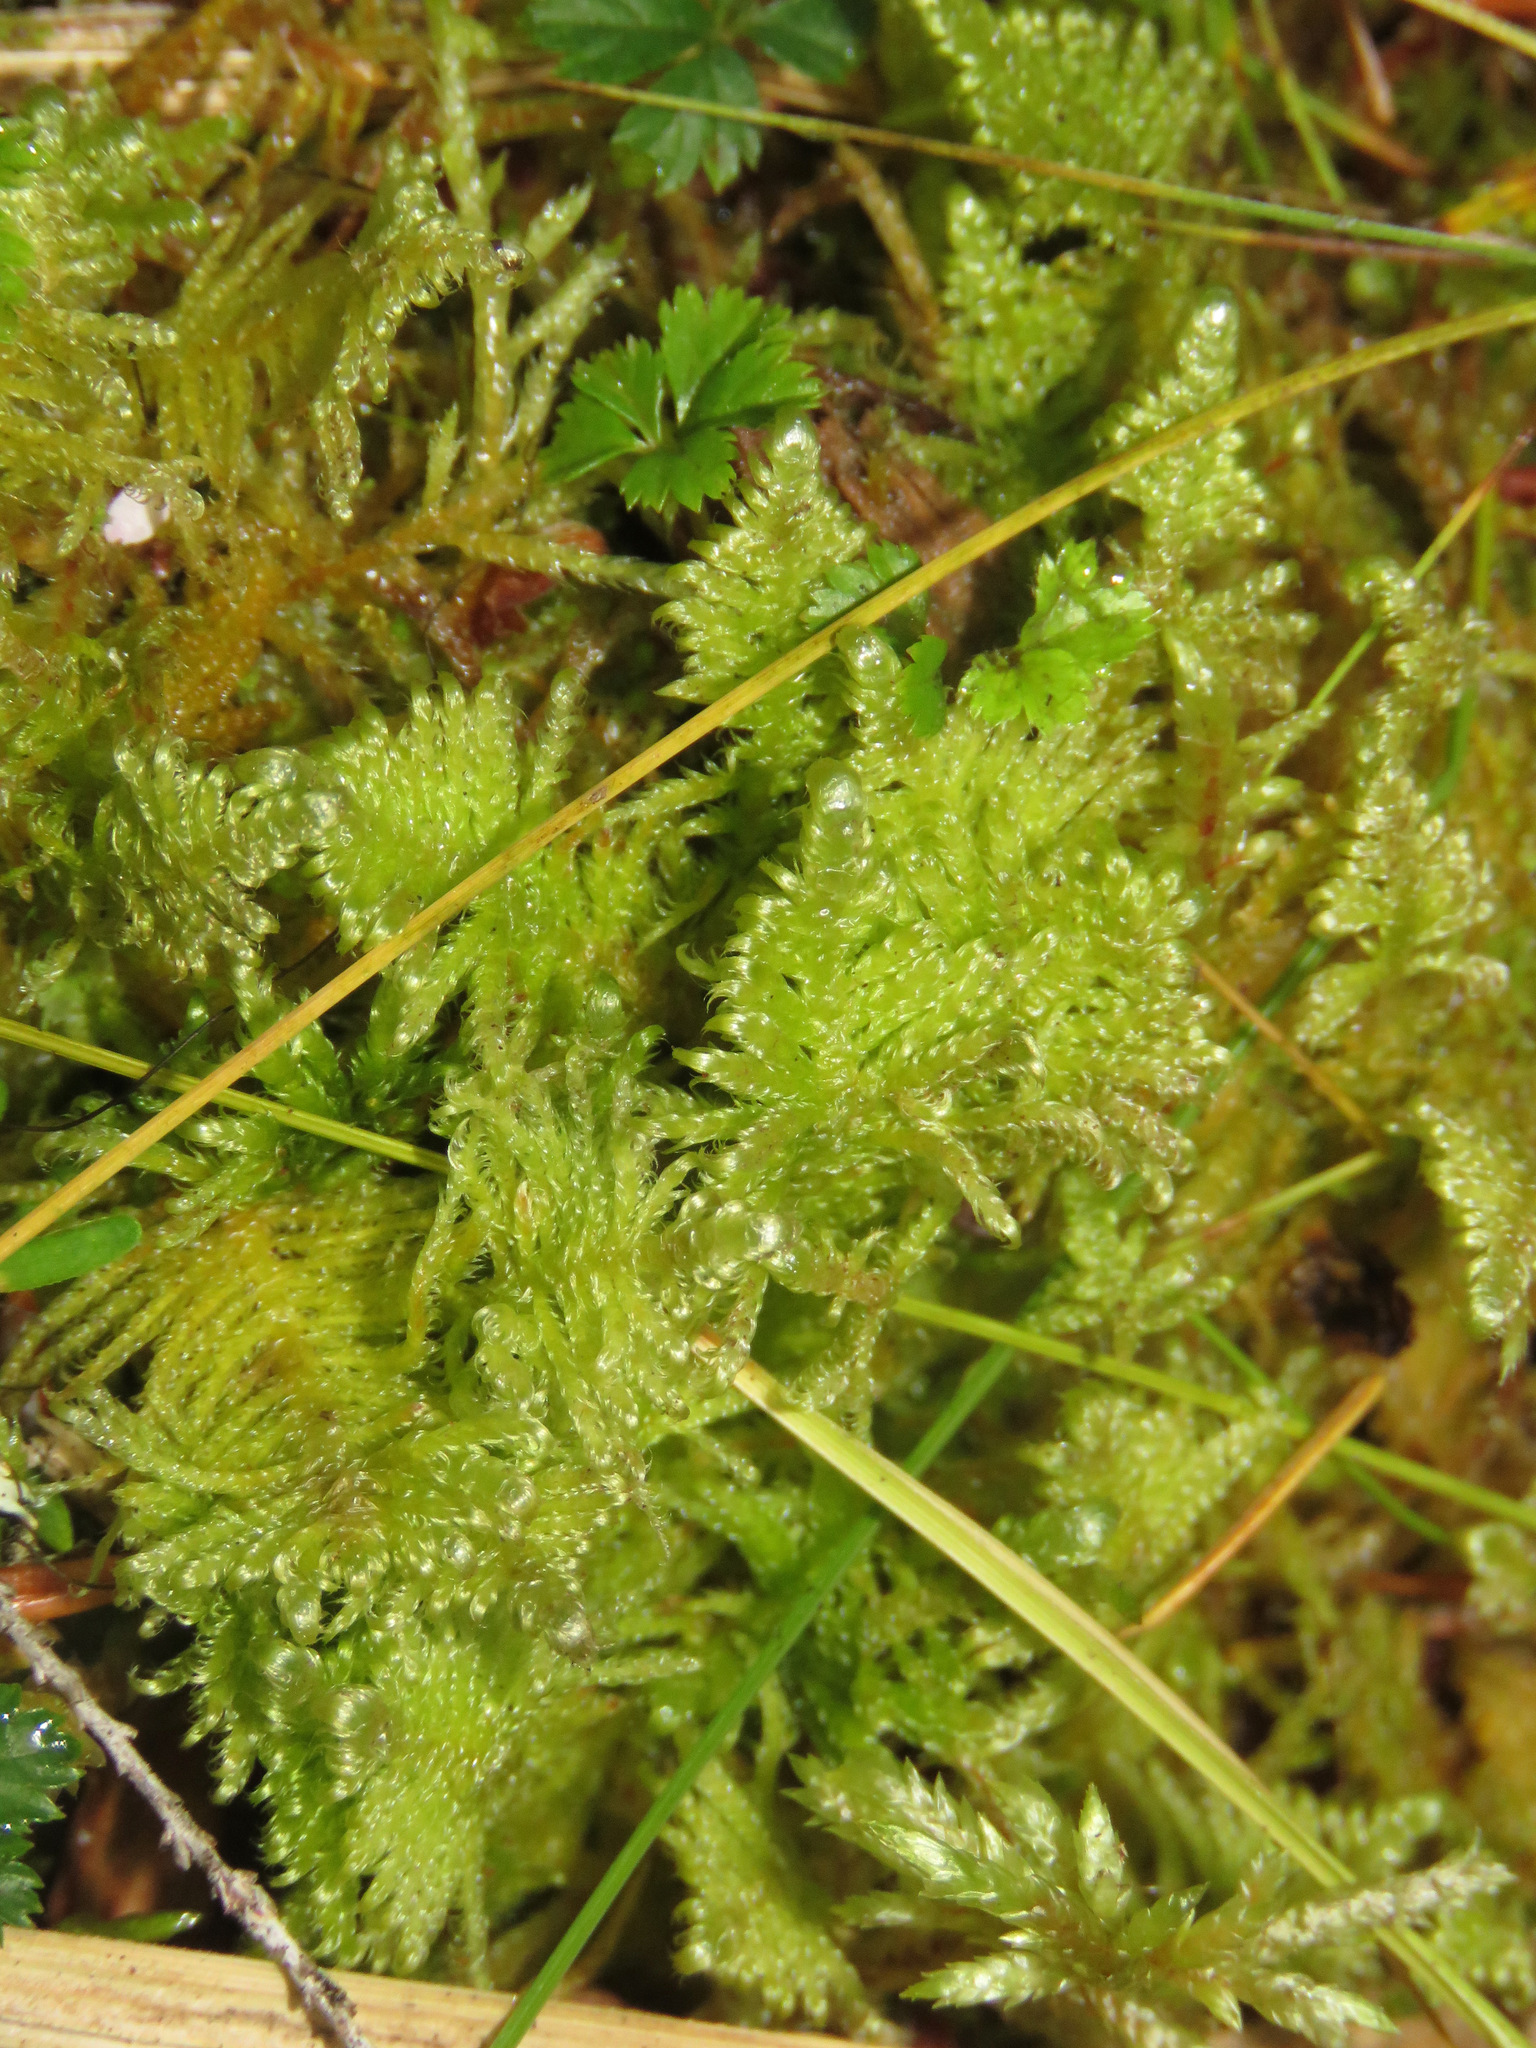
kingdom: Plantae
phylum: Bryophyta
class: Bryopsida
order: Hypnales
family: Pylaisiaceae
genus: Ptilium
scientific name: Ptilium crista-castrensis
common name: Knight's plume moss
